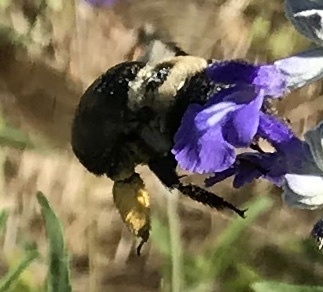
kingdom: Animalia
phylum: Arthropoda
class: Insecta
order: Hymenoptera
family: Apidae
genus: Xylocopa
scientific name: Xylocopa virginica
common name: Carpenter bee
